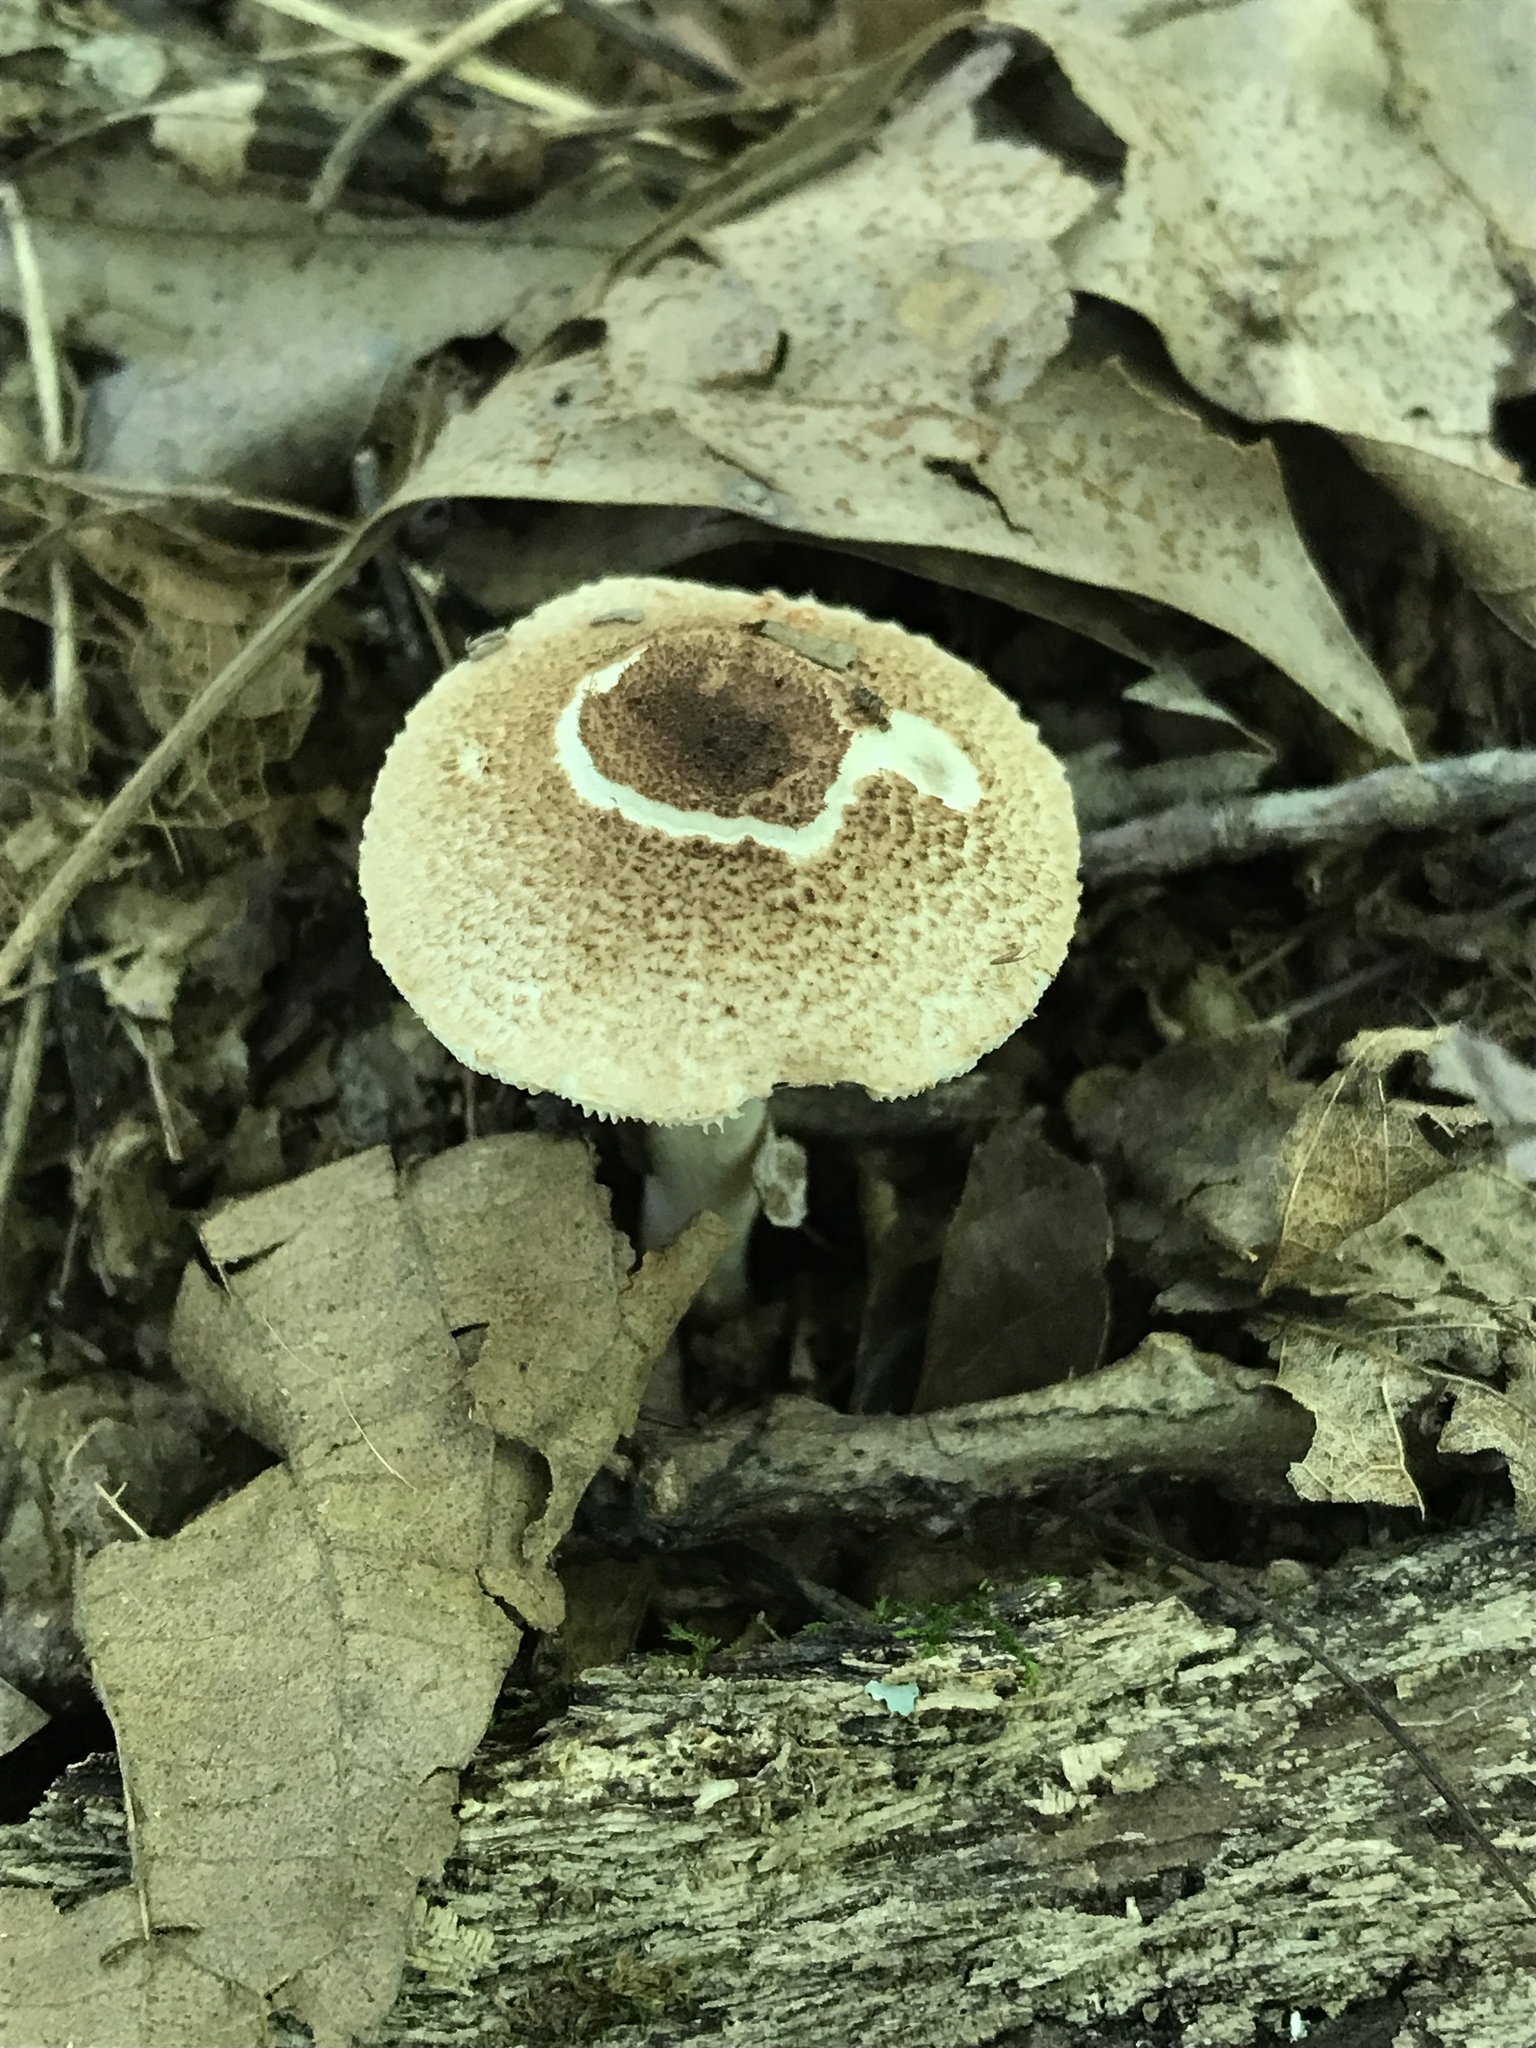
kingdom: Fungi
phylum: Basidiomycota
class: Agaricomycetes
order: Agaricales
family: Agaricaceae
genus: Leucocoprinus
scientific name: Leucocoprinus brunnescens
